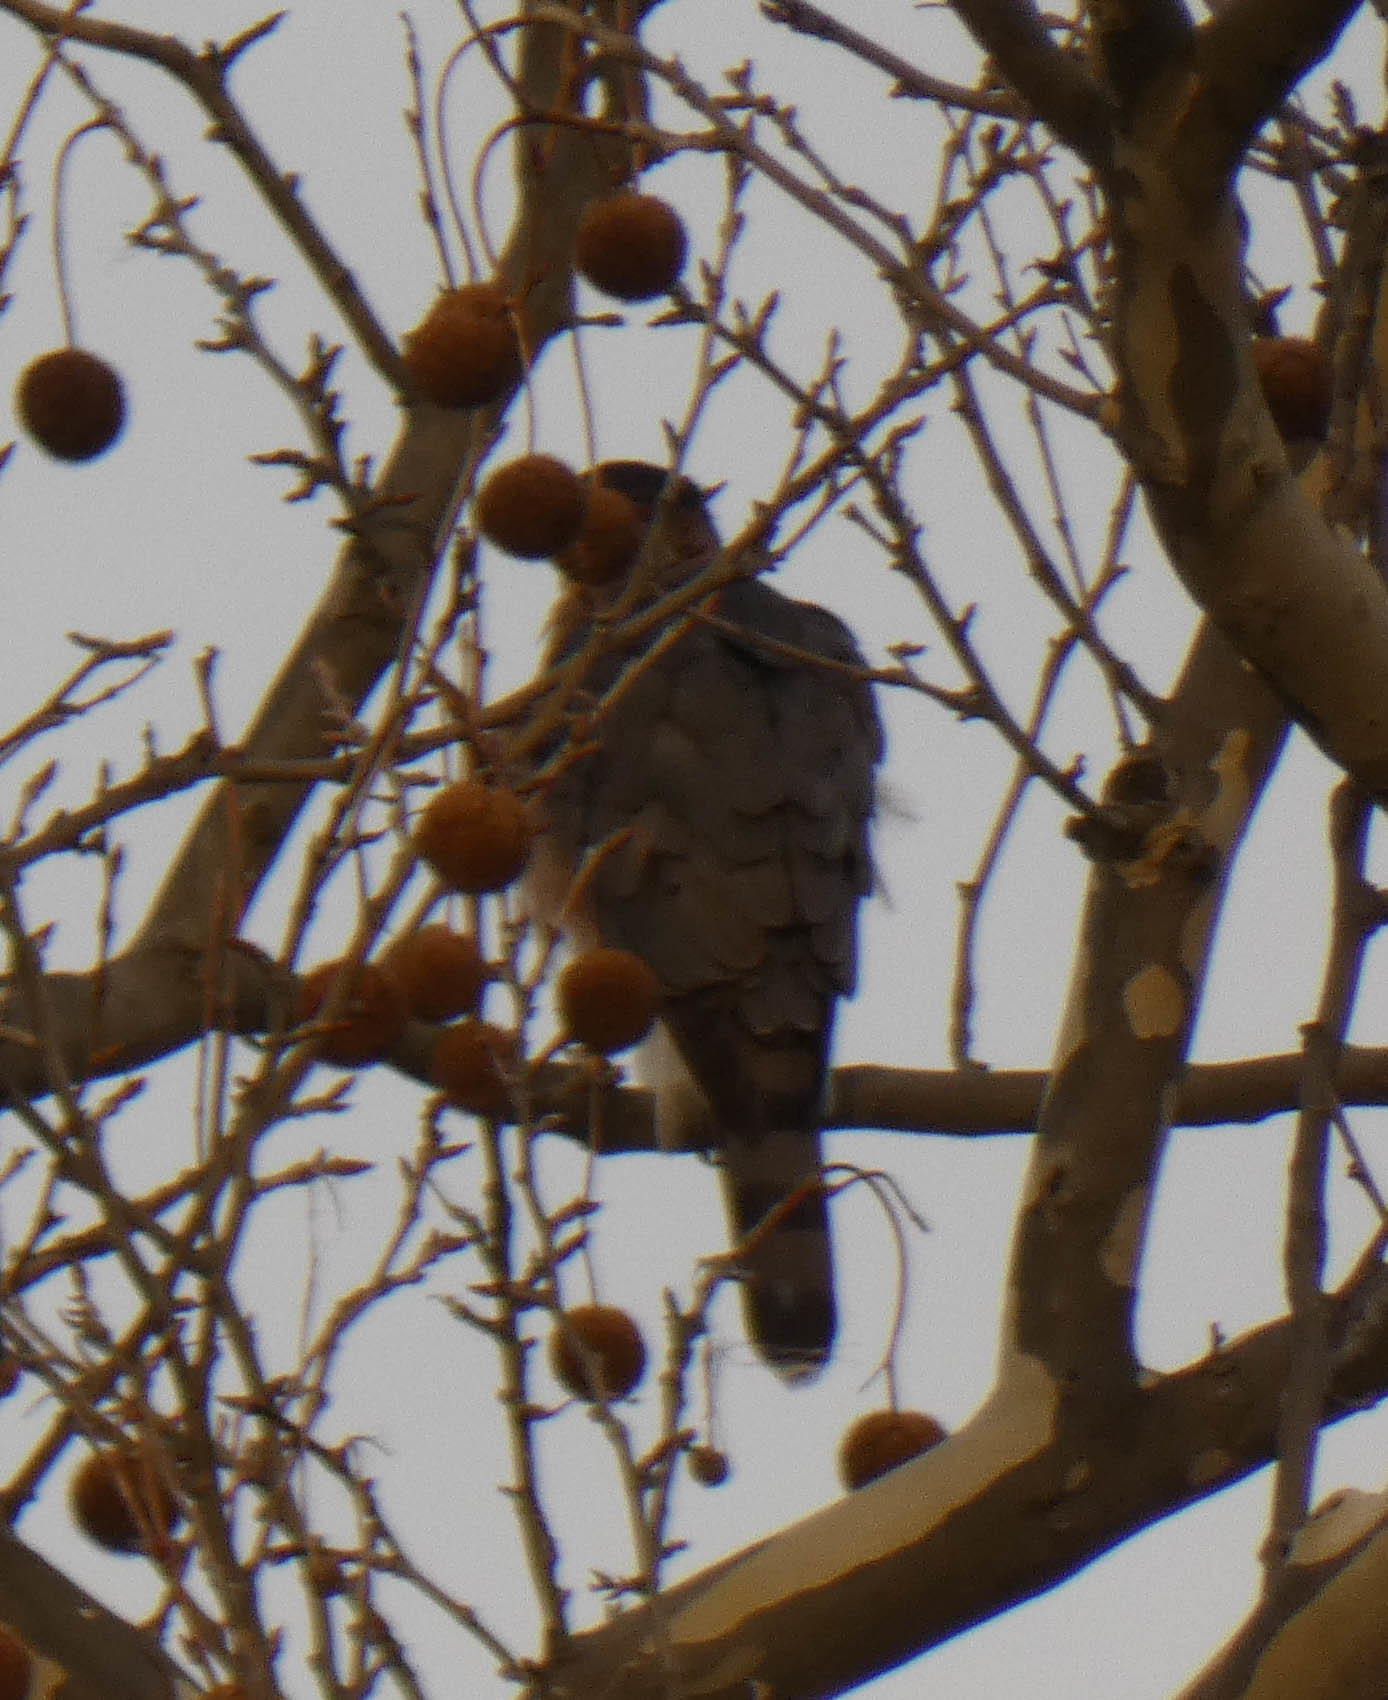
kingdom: Animalia
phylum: Chordata
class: Aves
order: Accipitriformes
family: Accipitridae
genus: Accipiter
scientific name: Accipiter cooperii
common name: Cooper's hawk
